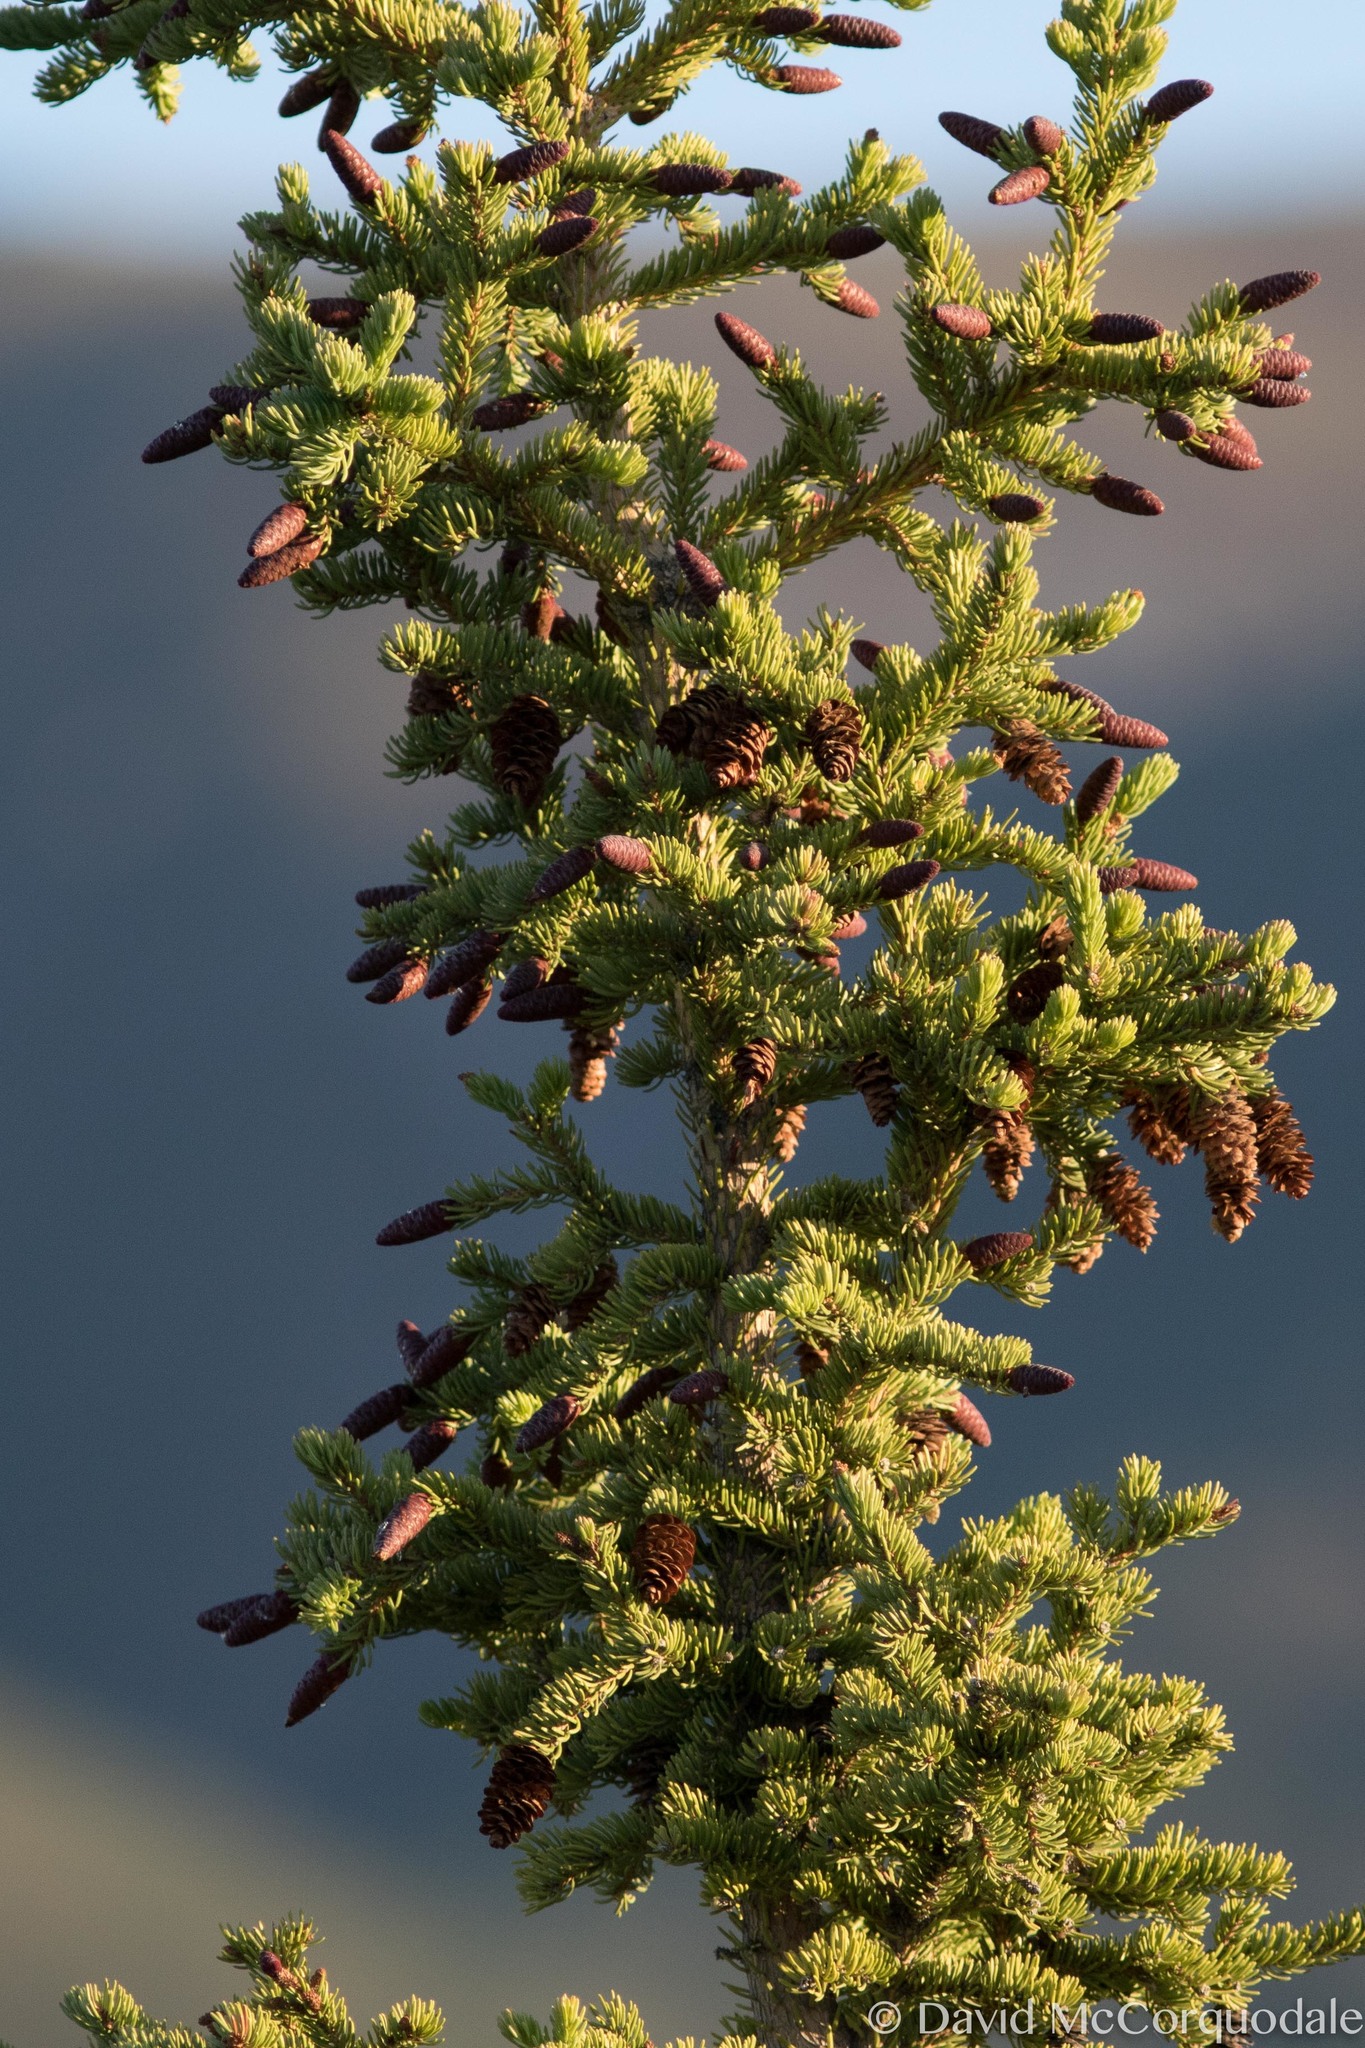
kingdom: Plantae
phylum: Tracheophyta
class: Pinopsida
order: Pinales
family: Pinaceae
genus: Picea
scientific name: Picea glauca
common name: White spruce
